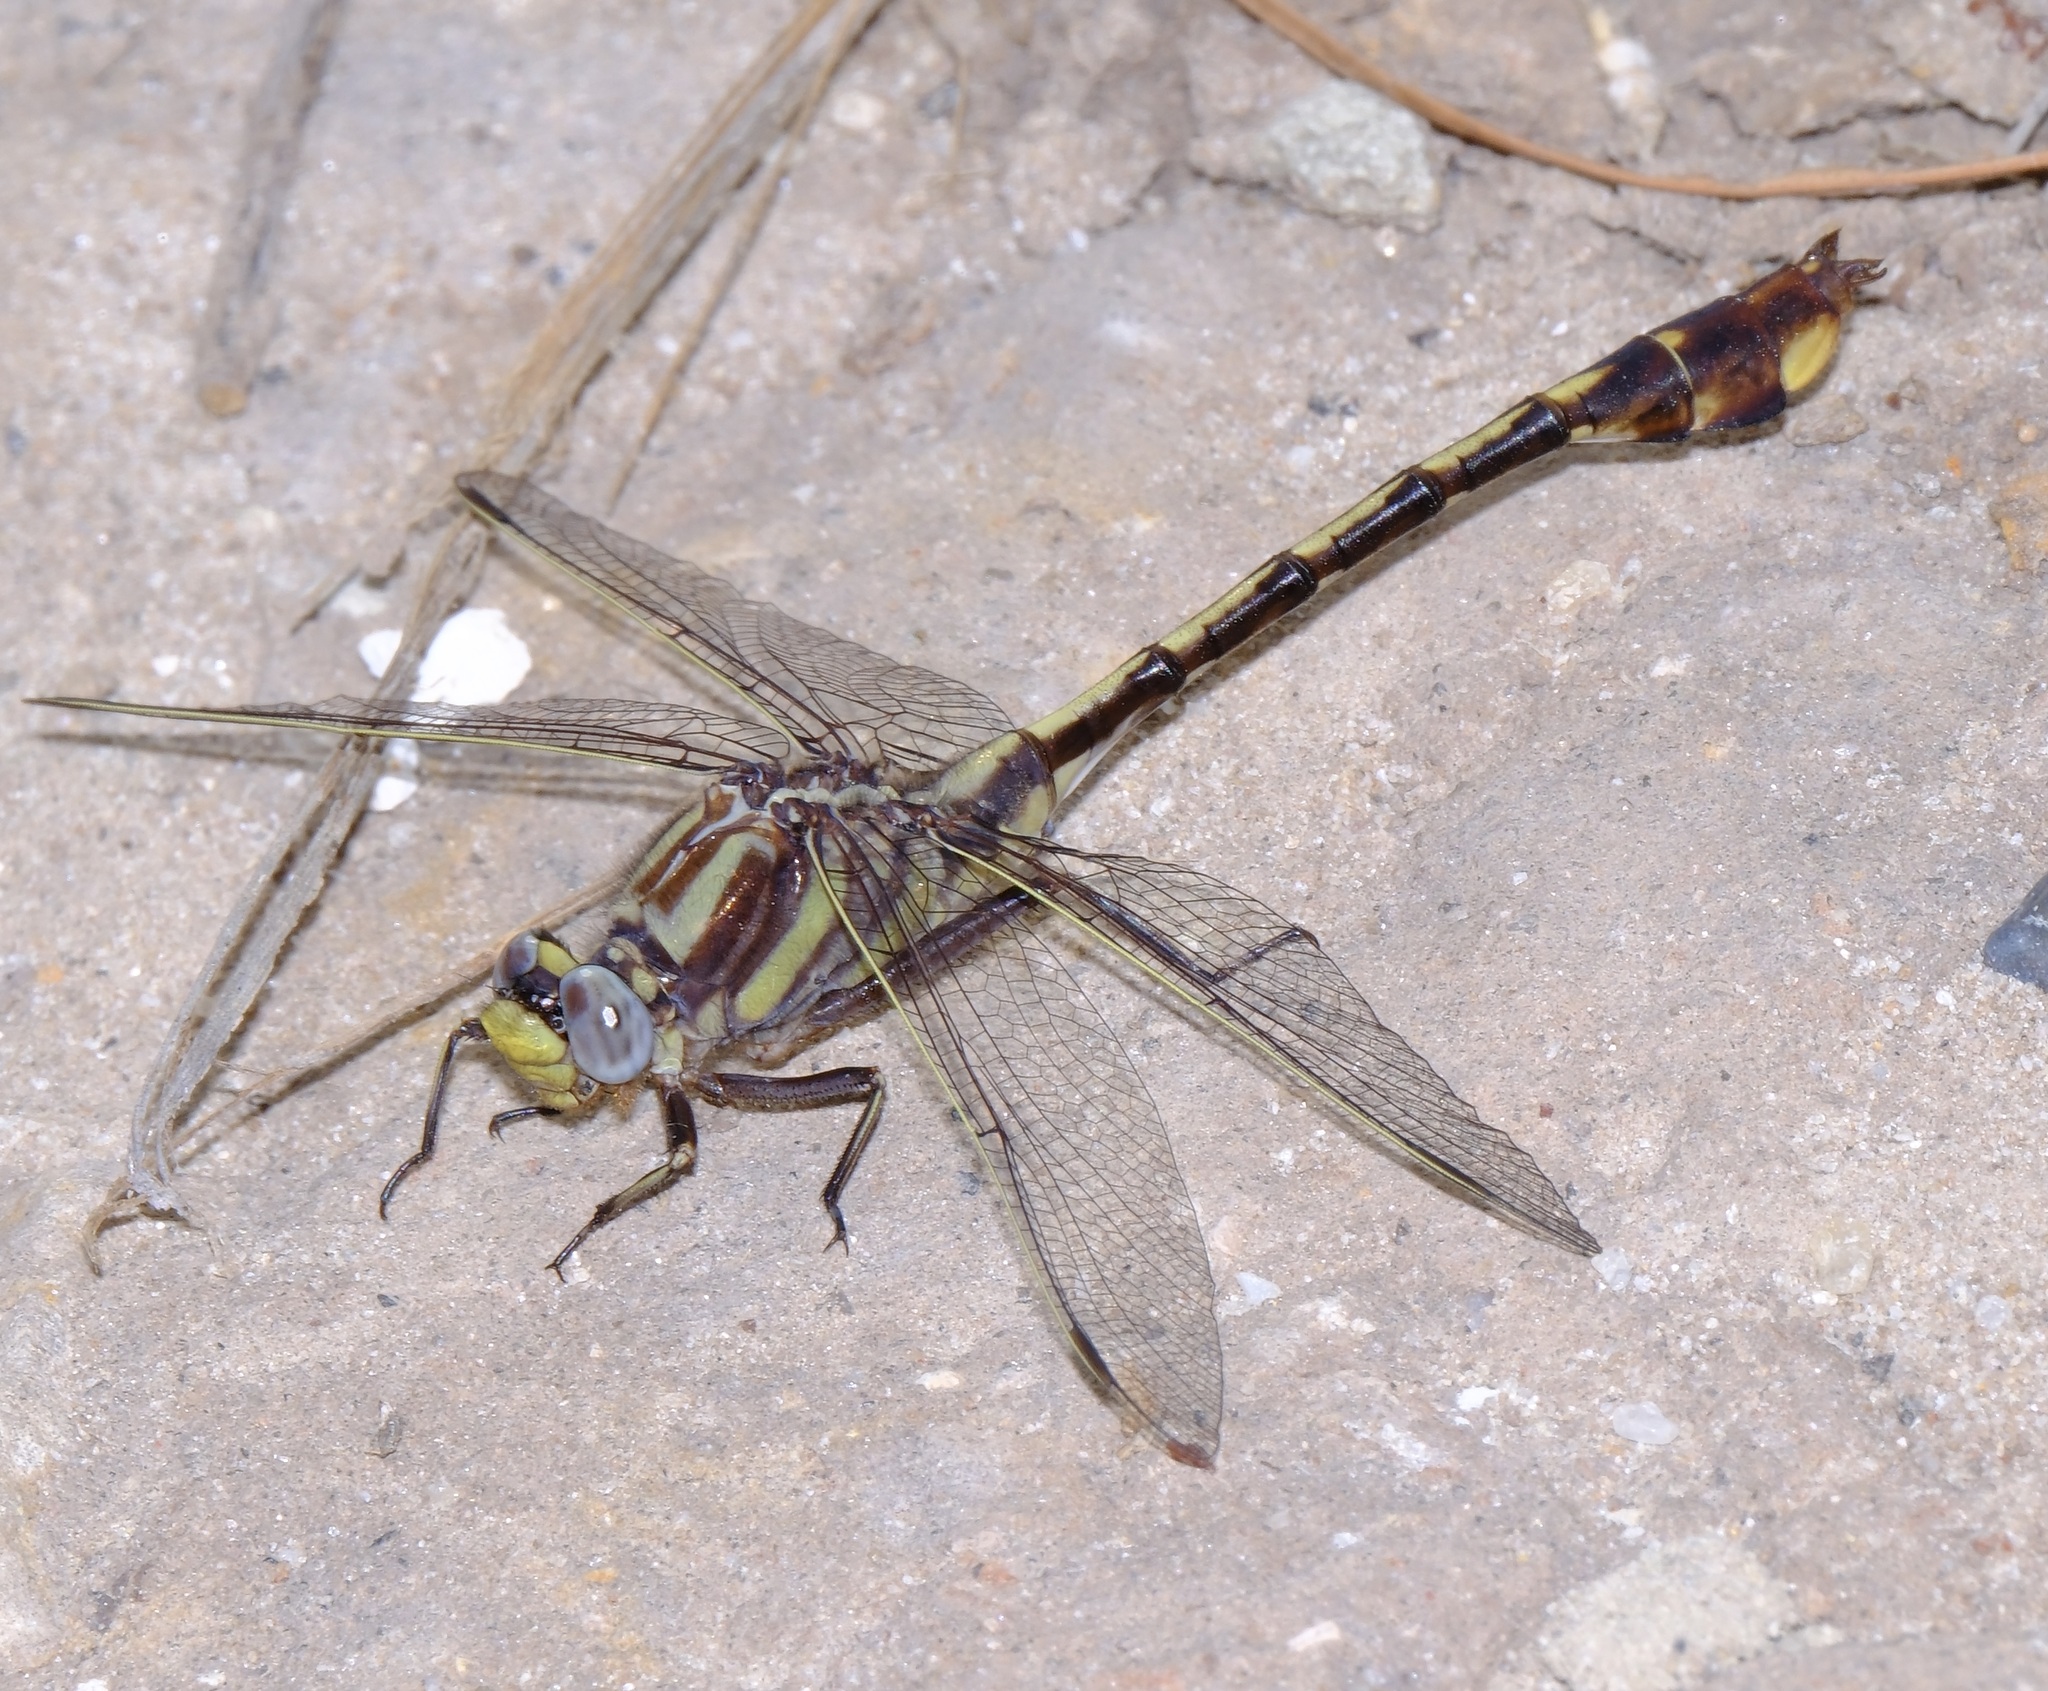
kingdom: Animalia
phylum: Arthropoda
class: Insecta
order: Odonata
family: Gomphidae
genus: Gomphurus
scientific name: Gomphurus hybridus
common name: Cocoa clubtail
